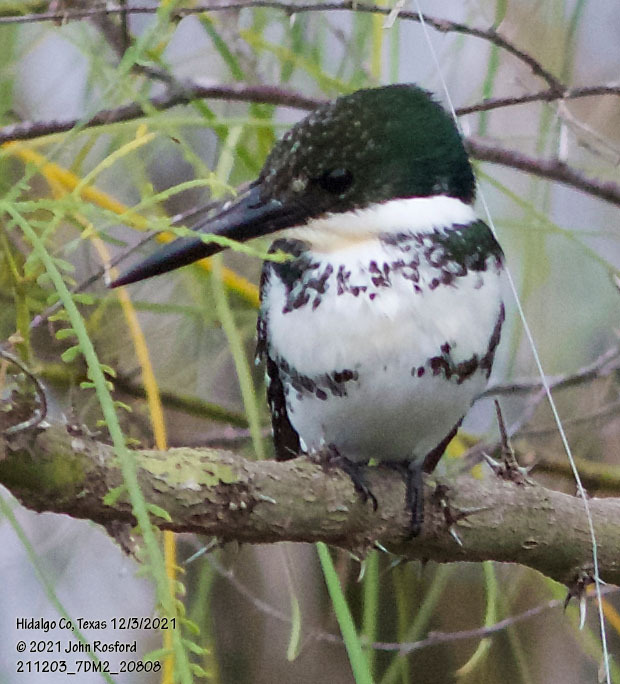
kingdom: Animalia
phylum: Chordata
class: Aves
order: Coraciiformes
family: Alcedinidae
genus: Chloroceryle
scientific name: Chloroceryle americana
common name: Green kingfisher
